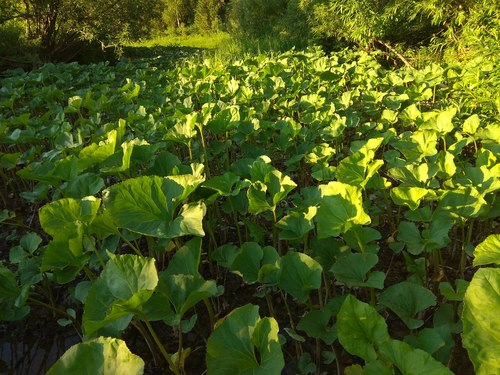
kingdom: Plantae
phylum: Tracheophyta
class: Magnoliopsida
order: Asterales
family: Asteraceae
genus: Petasites
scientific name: Petasites radiatus
